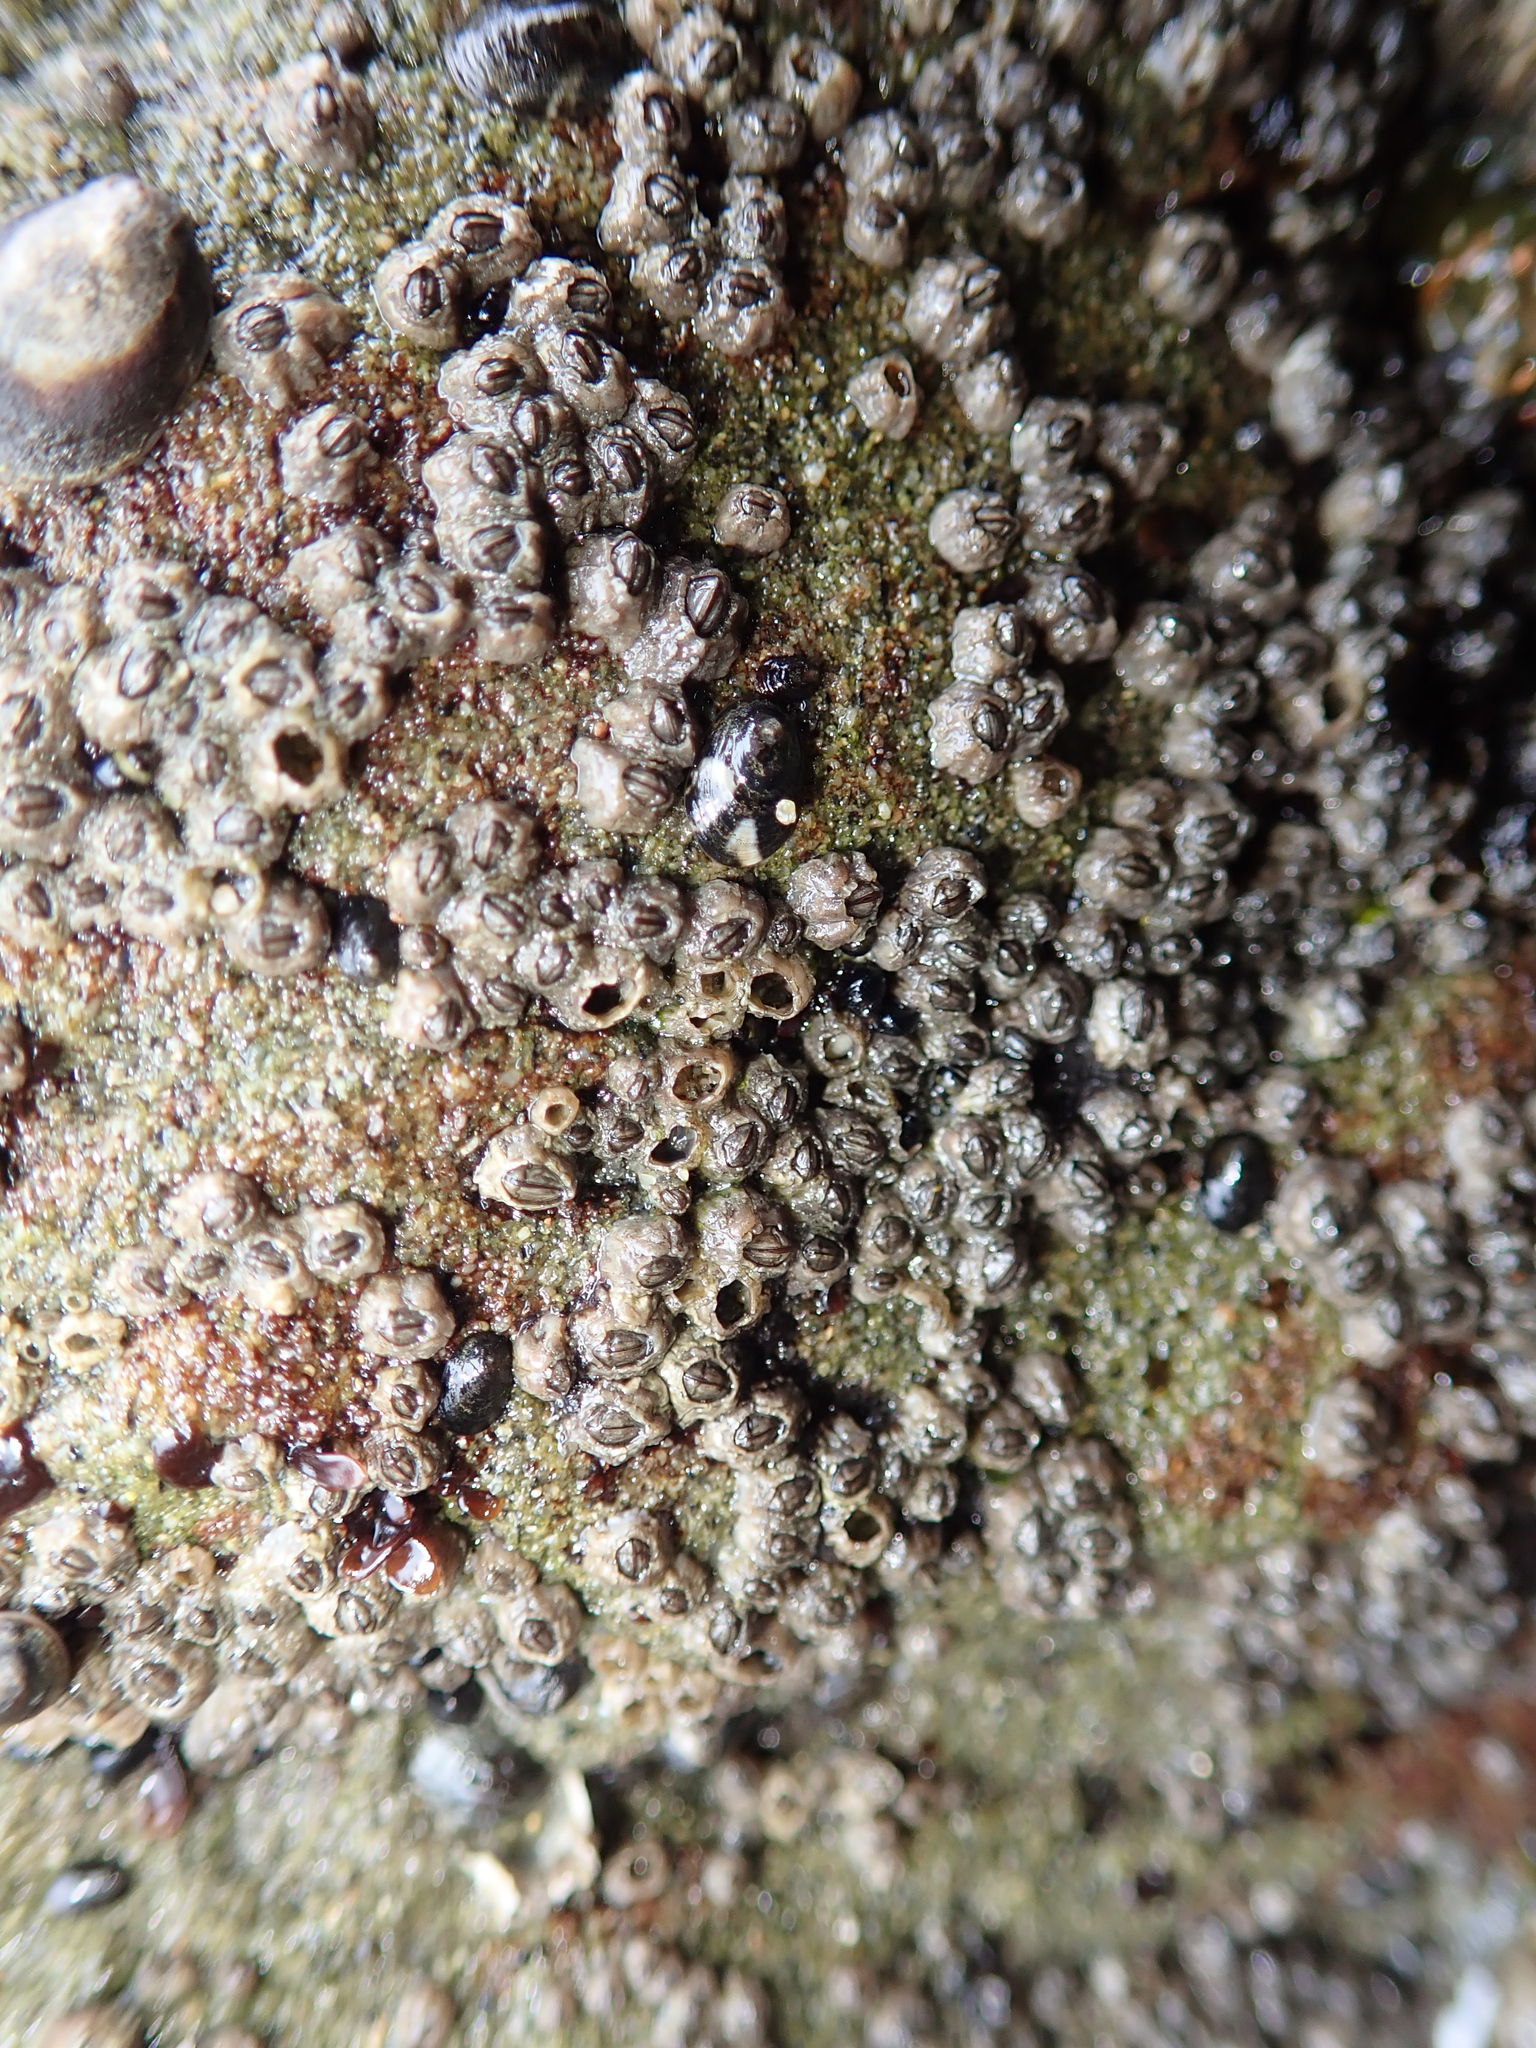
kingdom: Animalia
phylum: Arthropoda
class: Maxillopoda
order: Sessilia
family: Chthamalidae
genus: Chthamalus
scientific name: Chthamalus dalli
